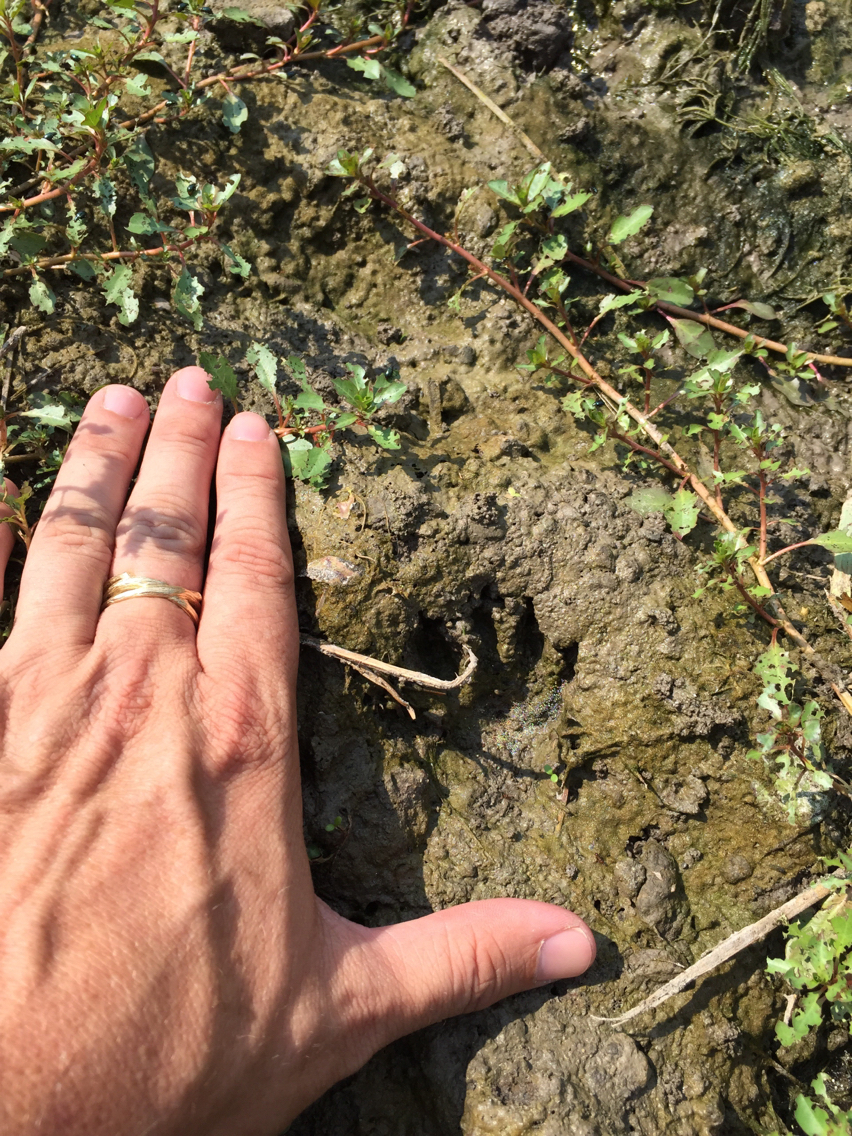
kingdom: Animalia
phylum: Chordata
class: Mammalia
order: Carnivora
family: Procyonidae
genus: Procyon
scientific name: Procyon lotor
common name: Raccoon
